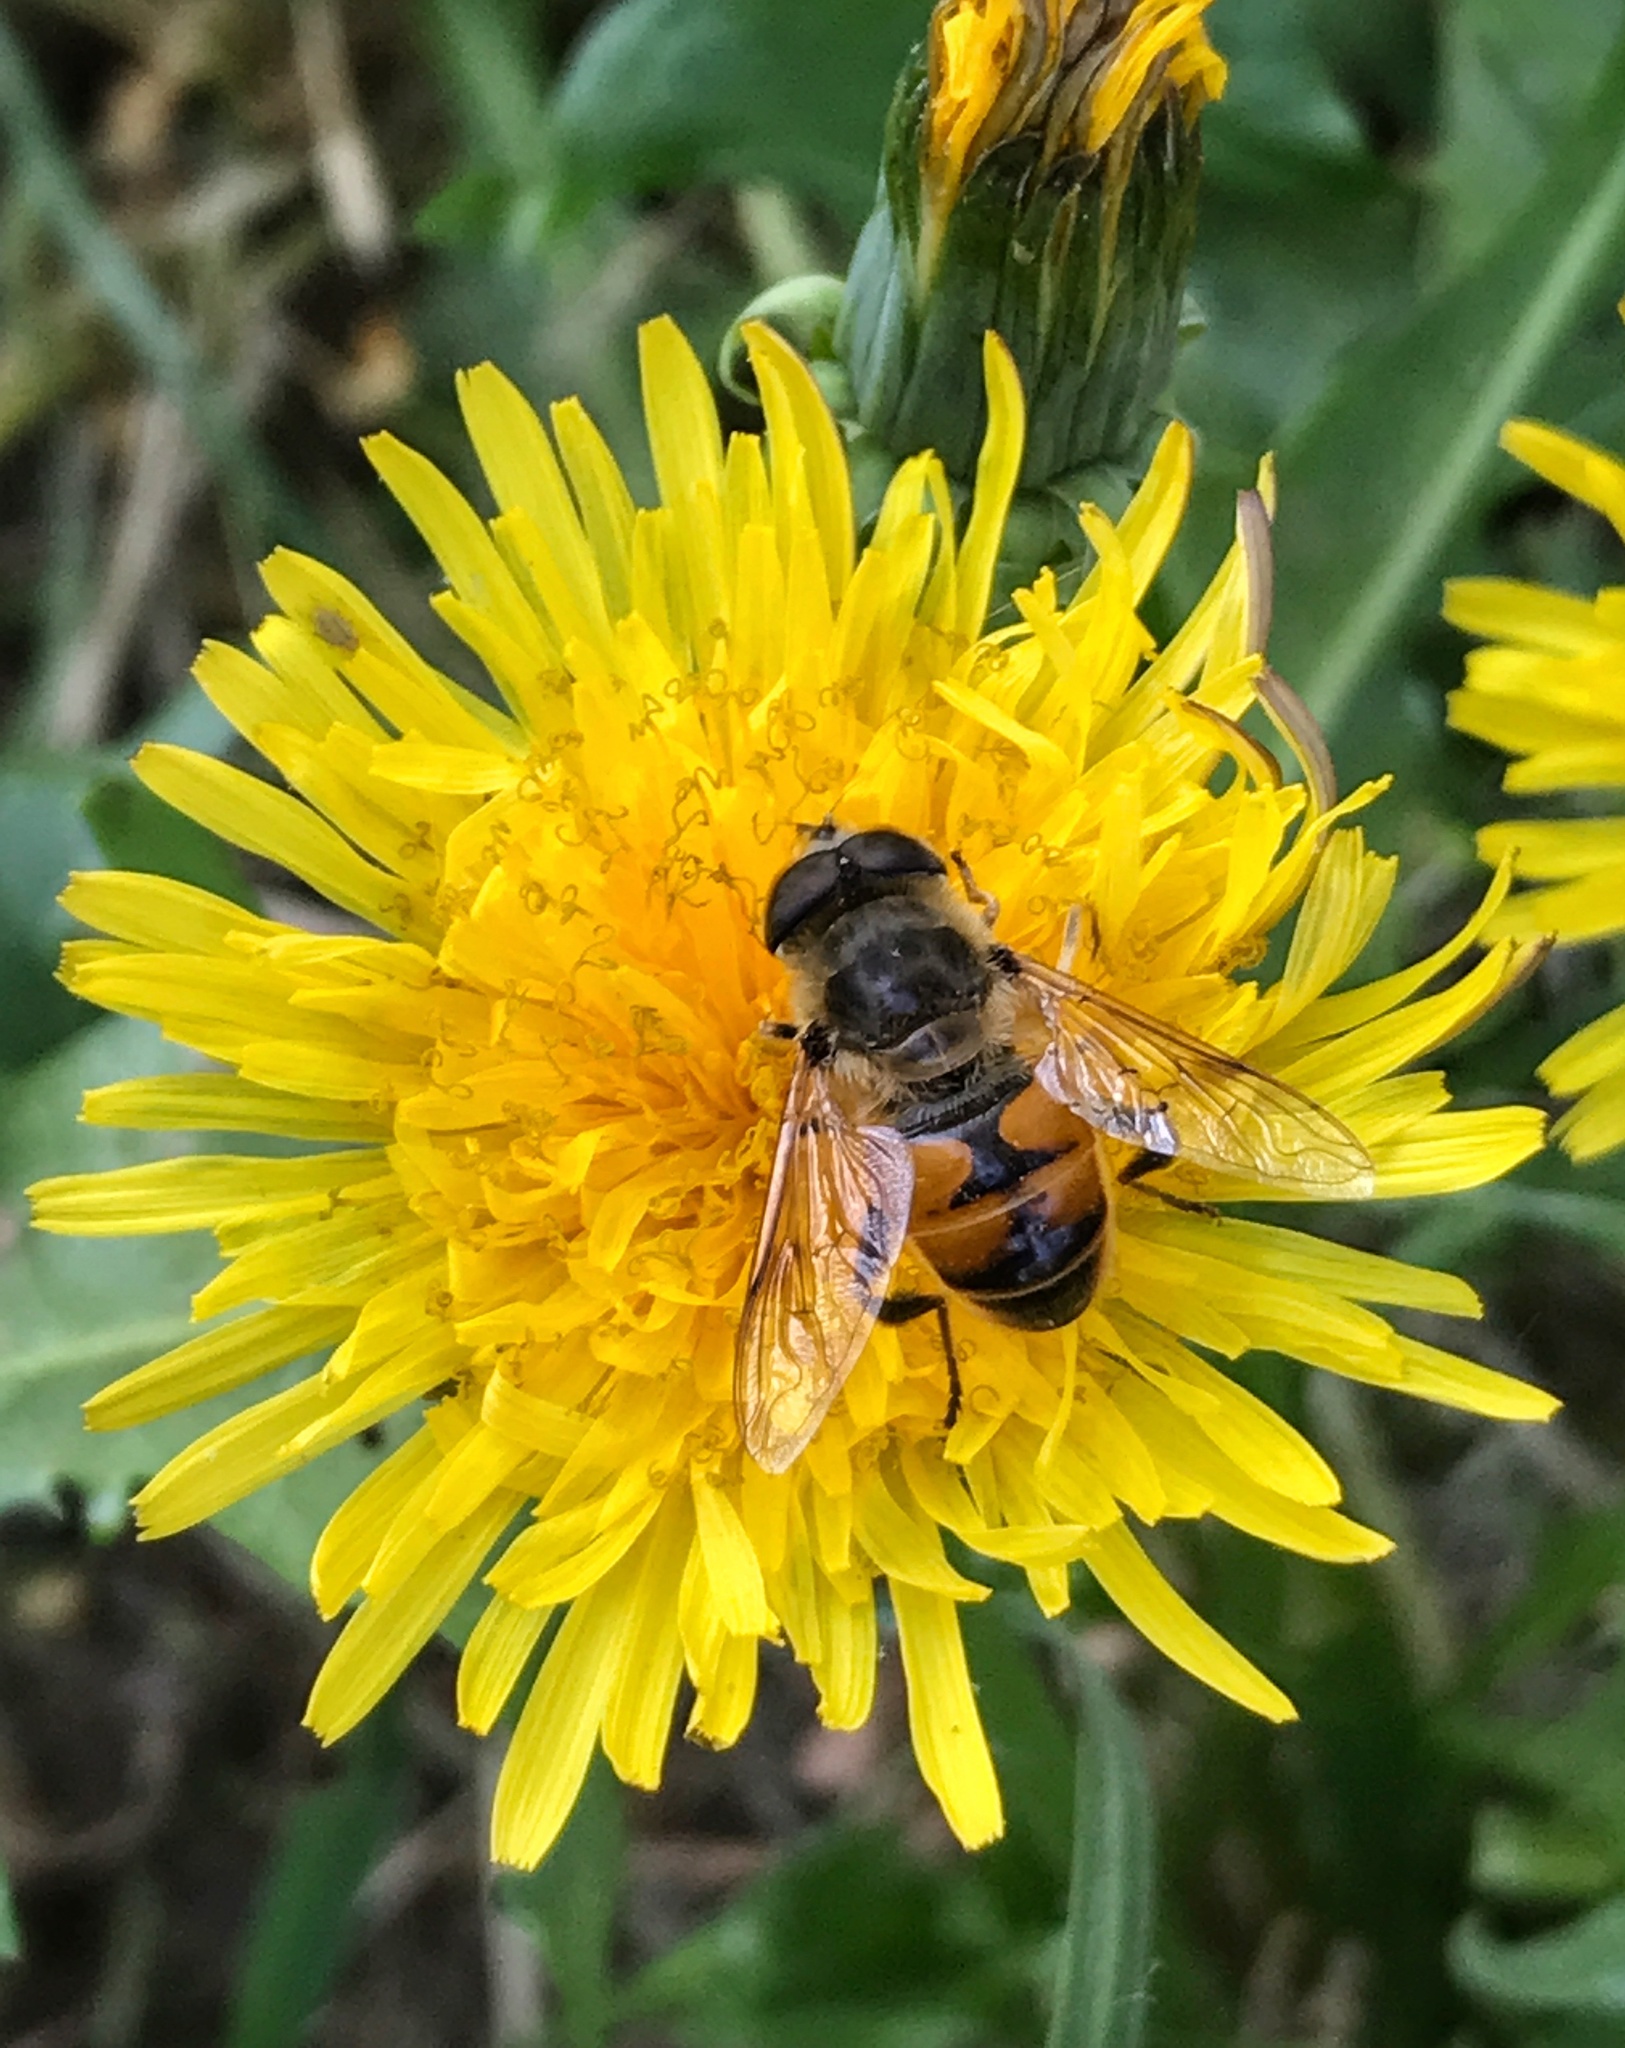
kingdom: Animalia
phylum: Arthropoda
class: Insecta
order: Diptera
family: Syrphidae
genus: Eristalis
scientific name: Eristalis tenax
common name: Drone fly
